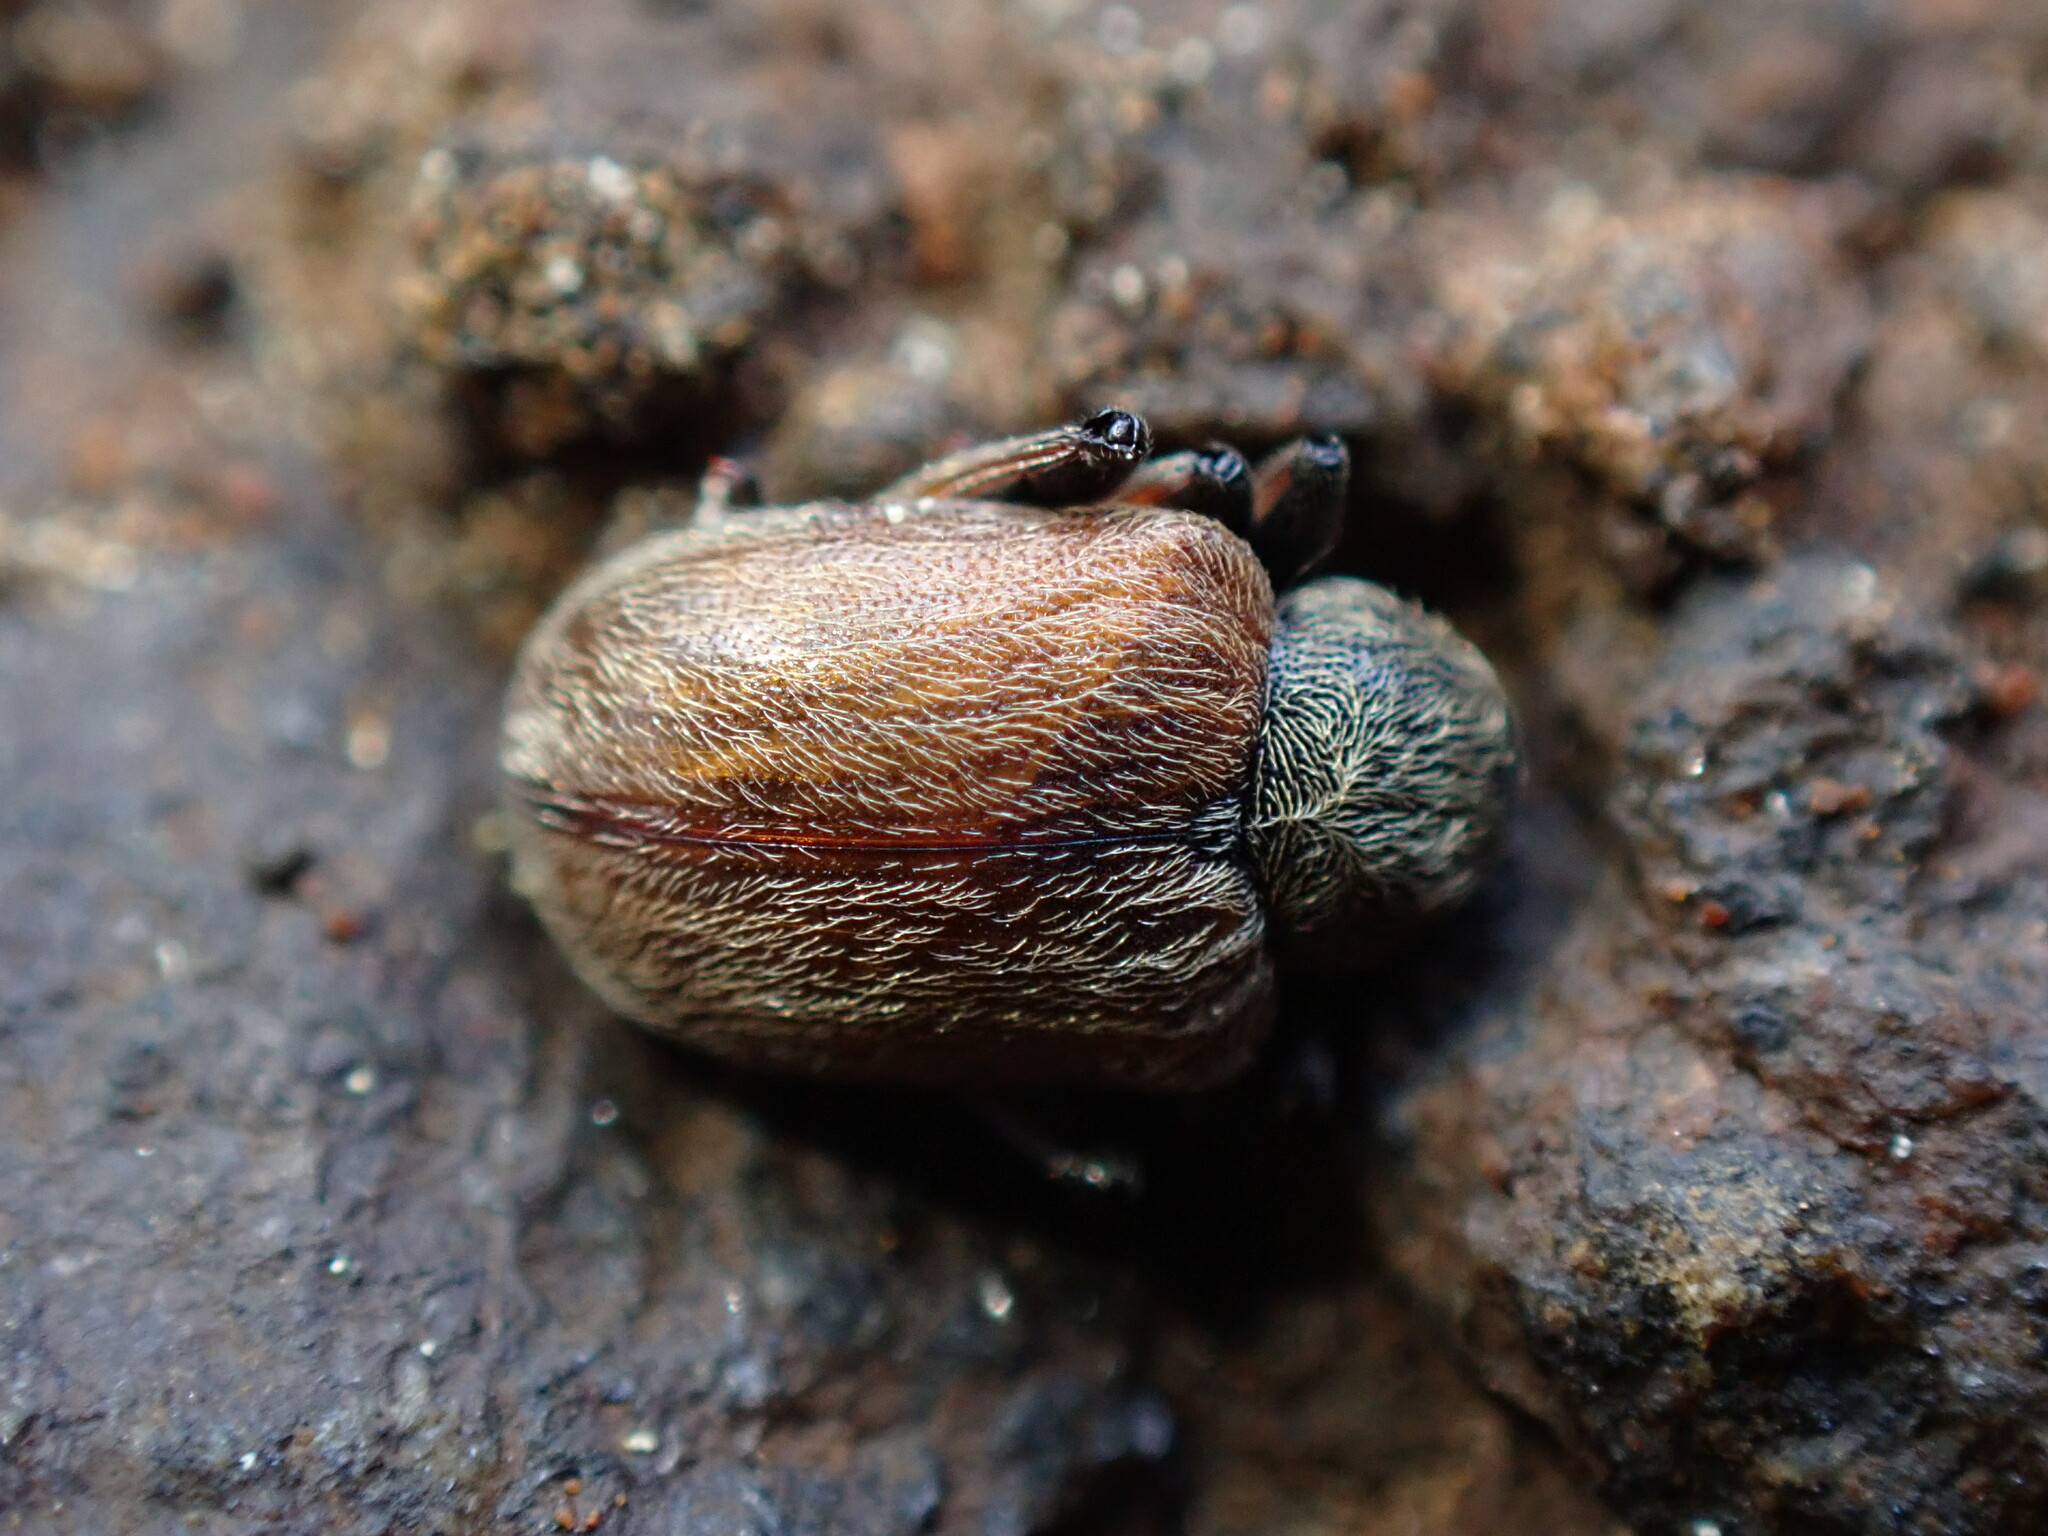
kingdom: Animalia
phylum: Arthropoda
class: Insecta
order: Coleoptera
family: Chrysomelidae
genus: Bromius
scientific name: Bromius obscurus
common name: Western grape rootworm
